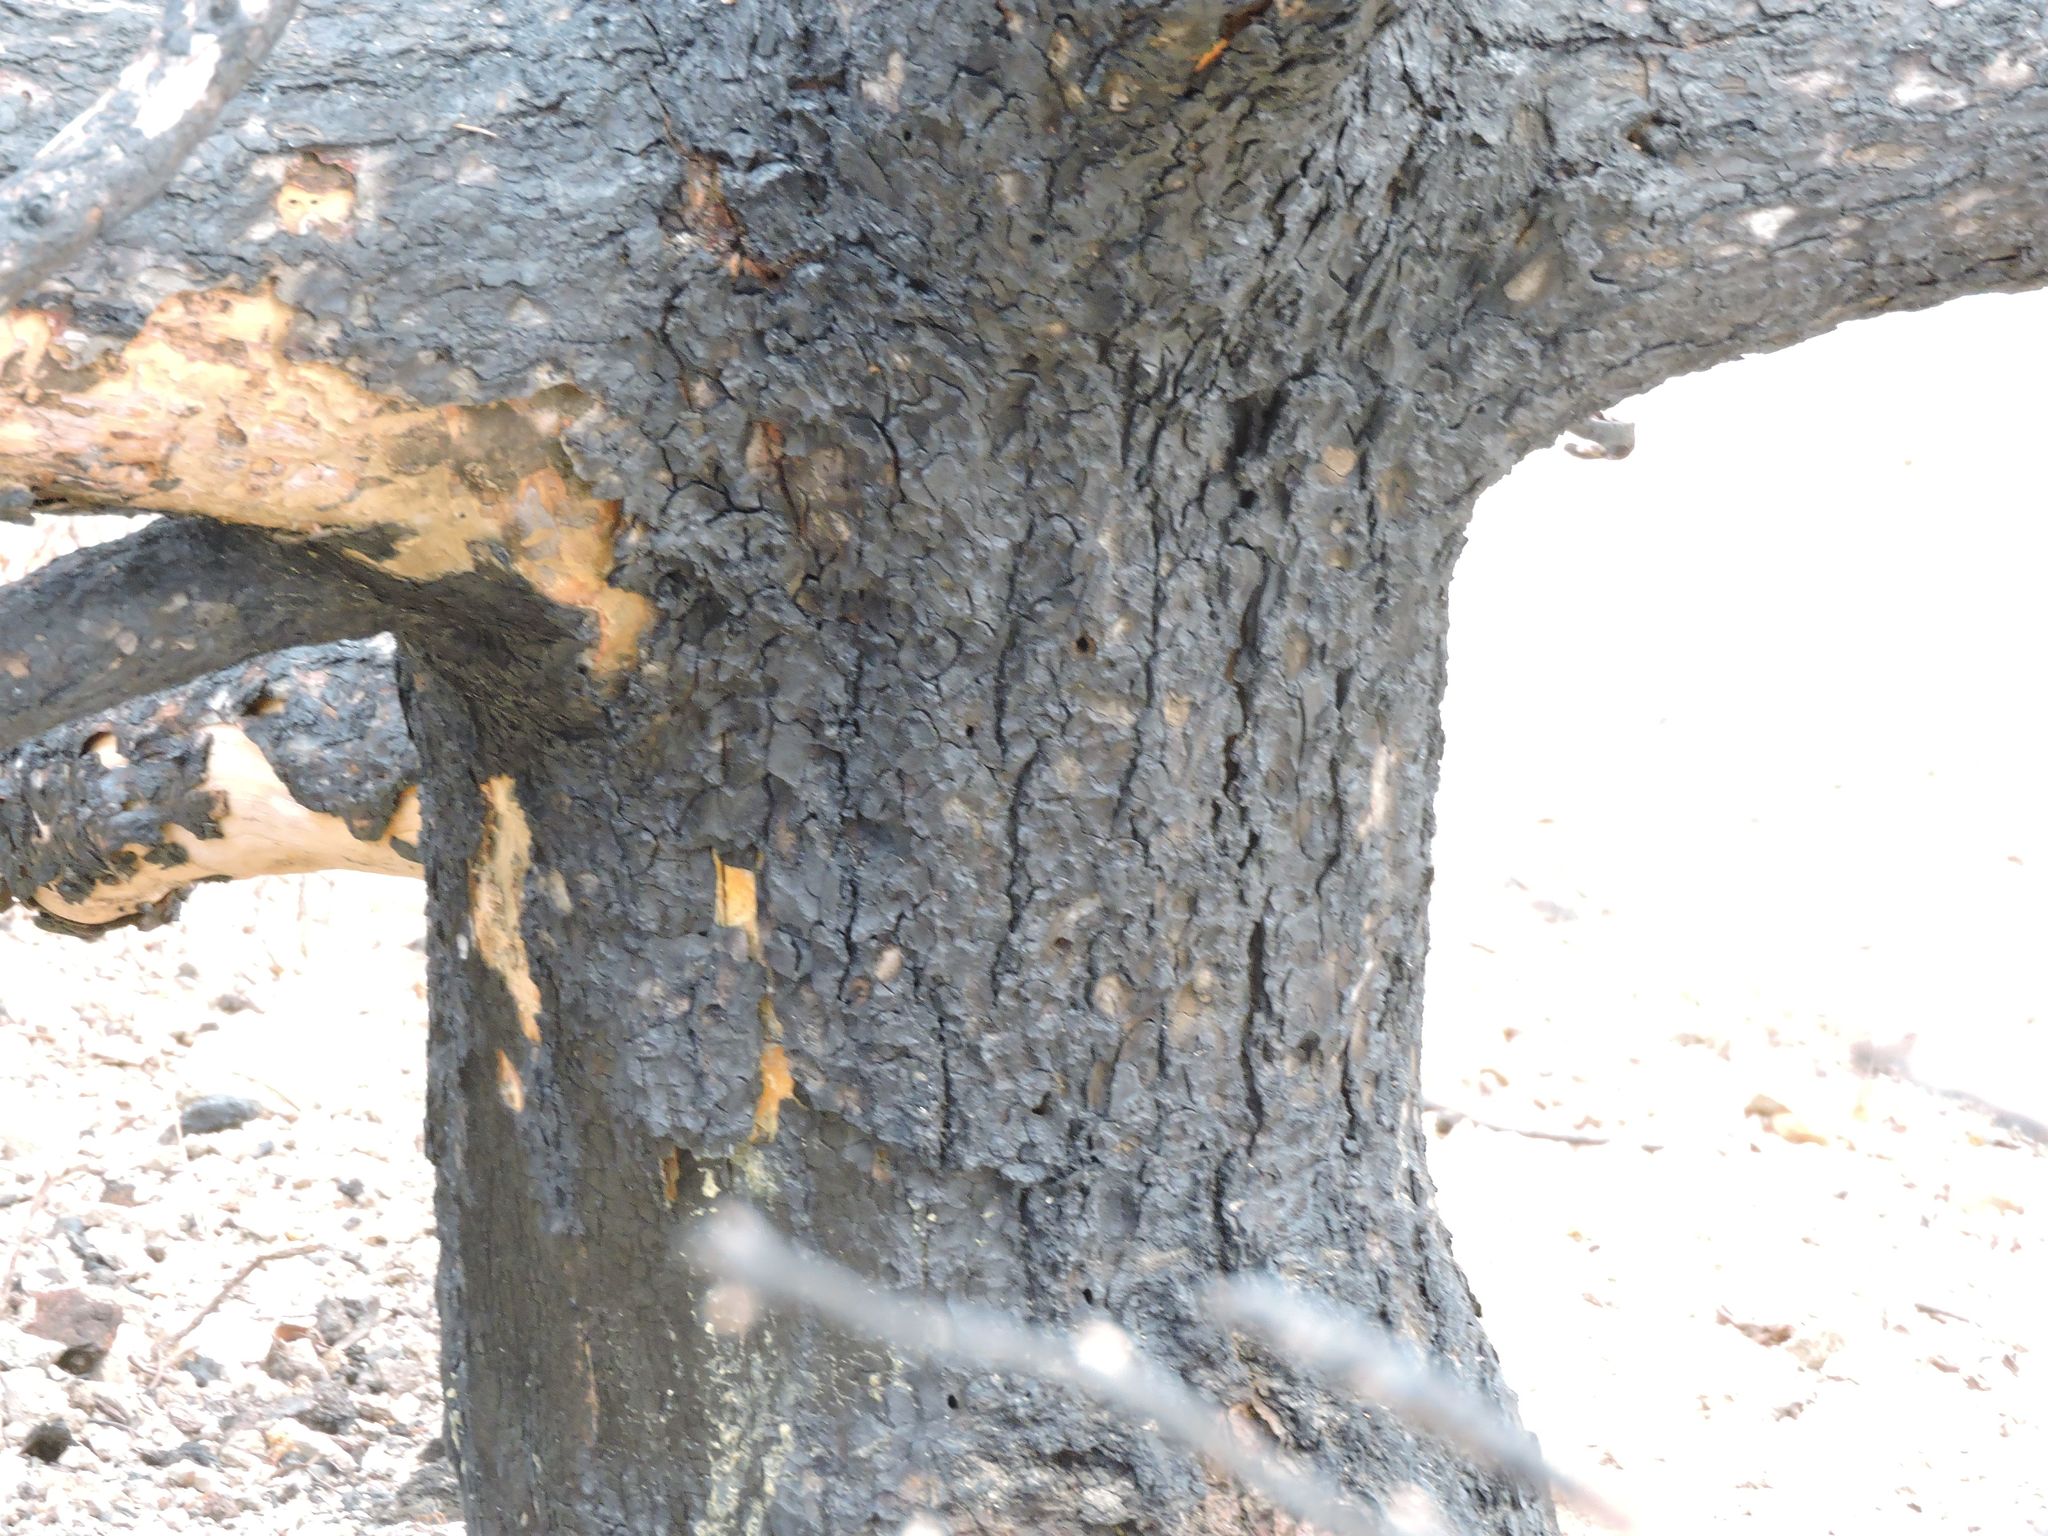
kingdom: Plantae
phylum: Tracheophyta
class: Pinopsida
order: Pinales
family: Pinaceae
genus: Pinus
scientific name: Pinus monophylla
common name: One-leaved nut pine
